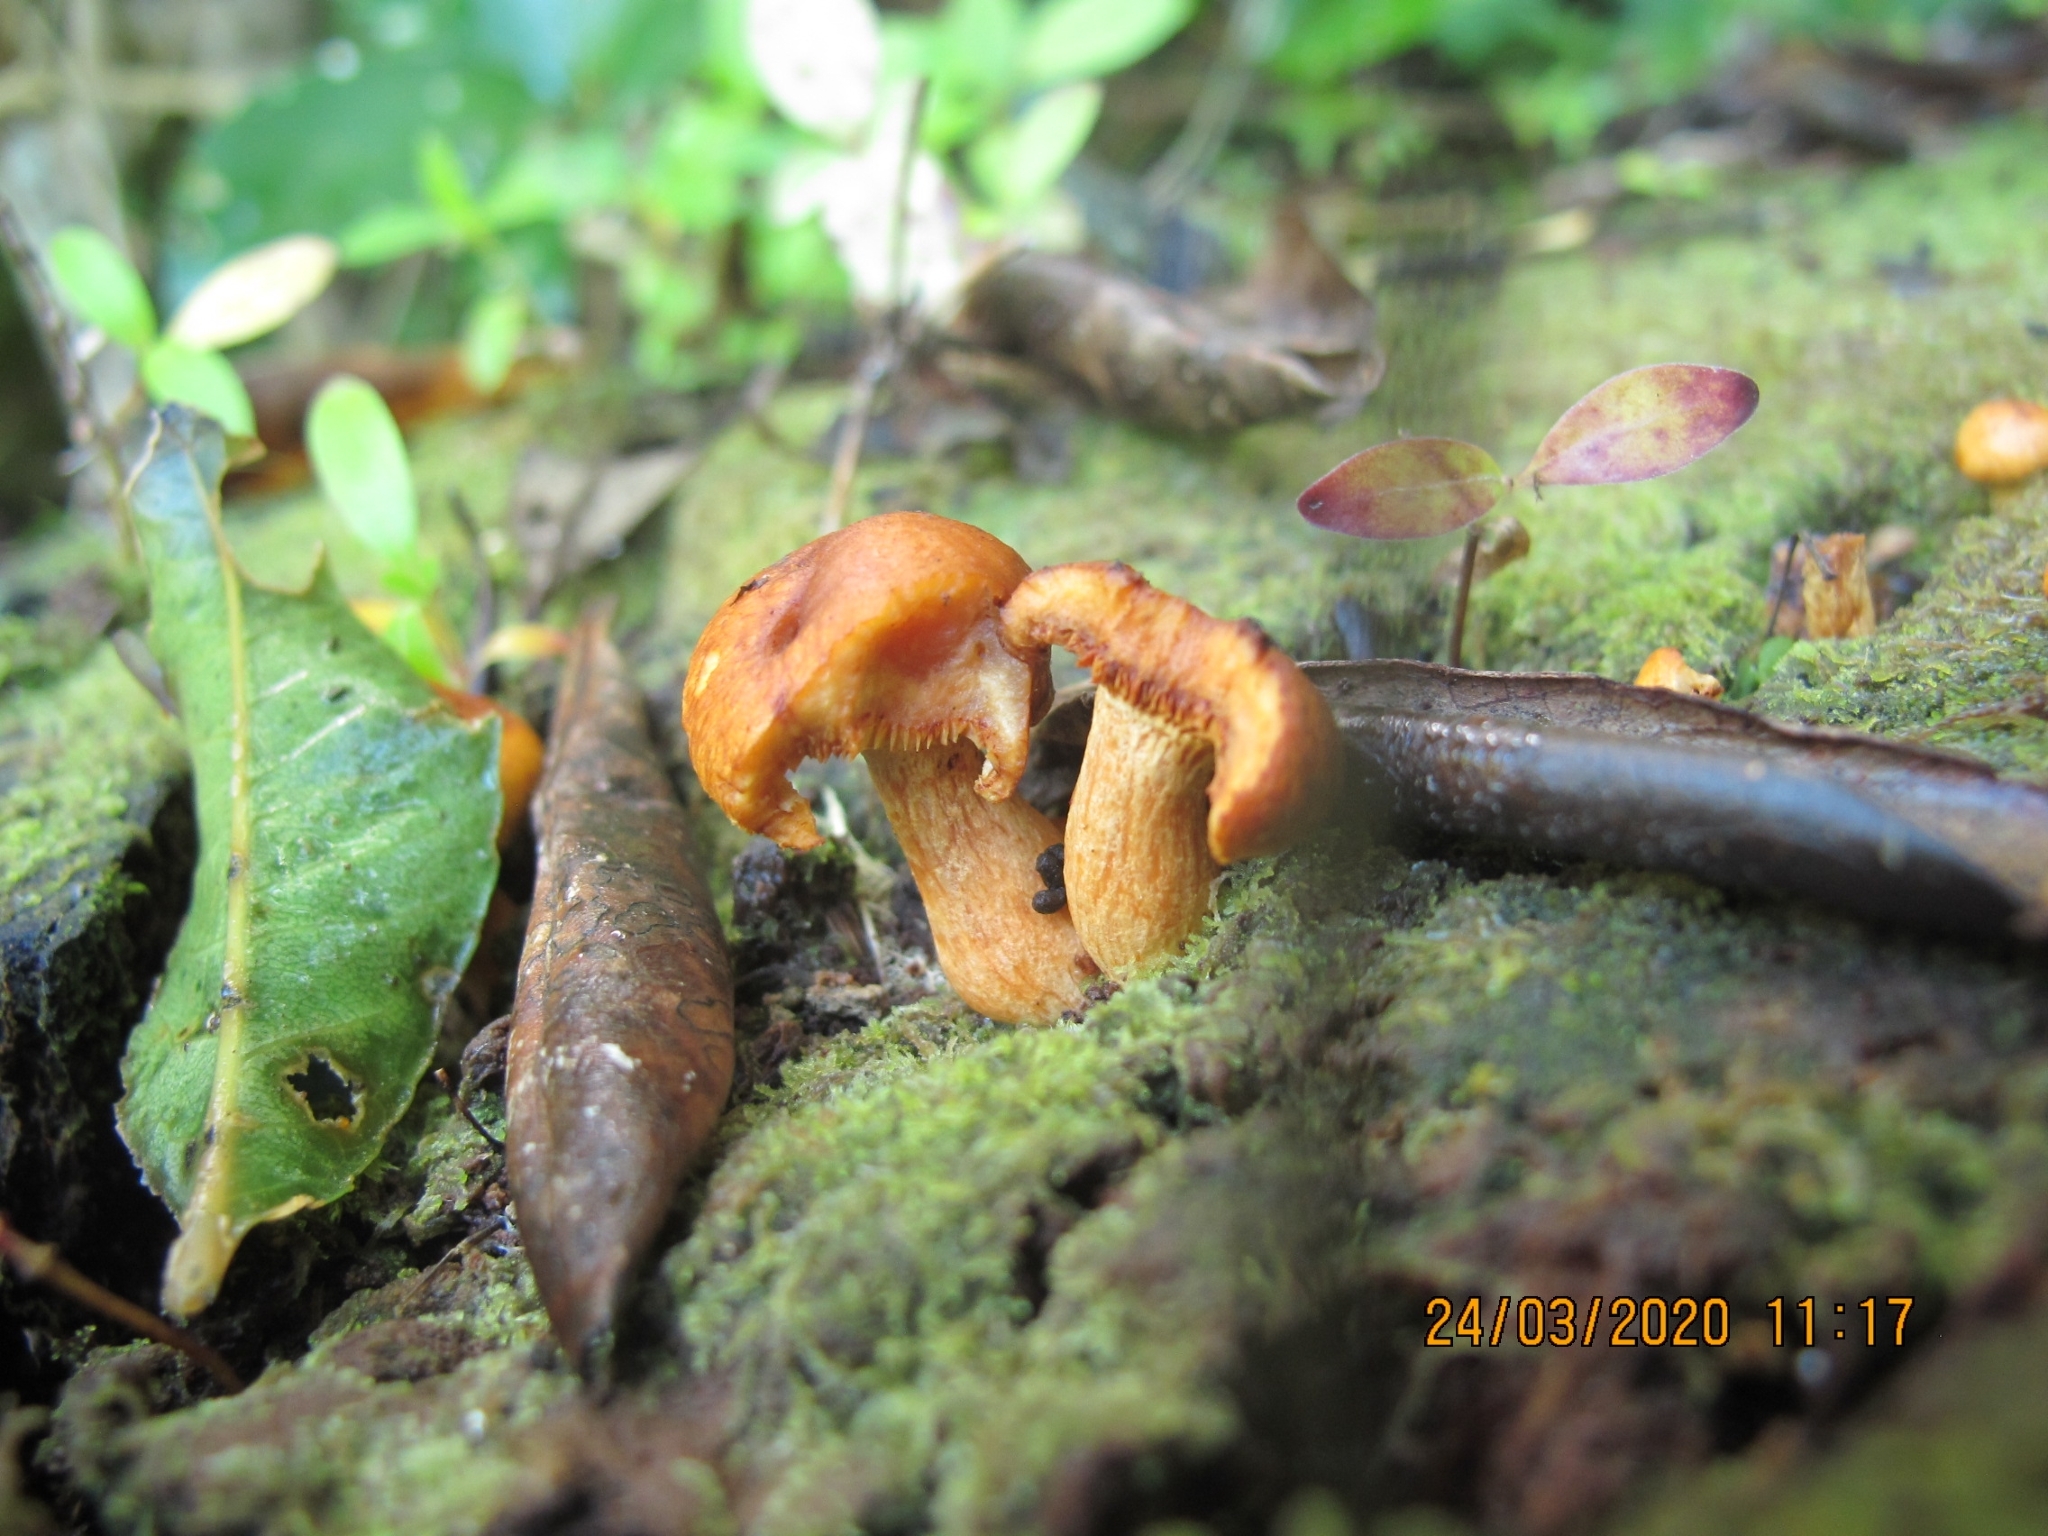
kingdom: Fungi
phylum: Basidiomycota
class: Agaricomycetes
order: Agaricales
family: Hymenogastraceae
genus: Gymnopilus
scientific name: Gymnopilus junonius
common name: Spectacular rustgill
